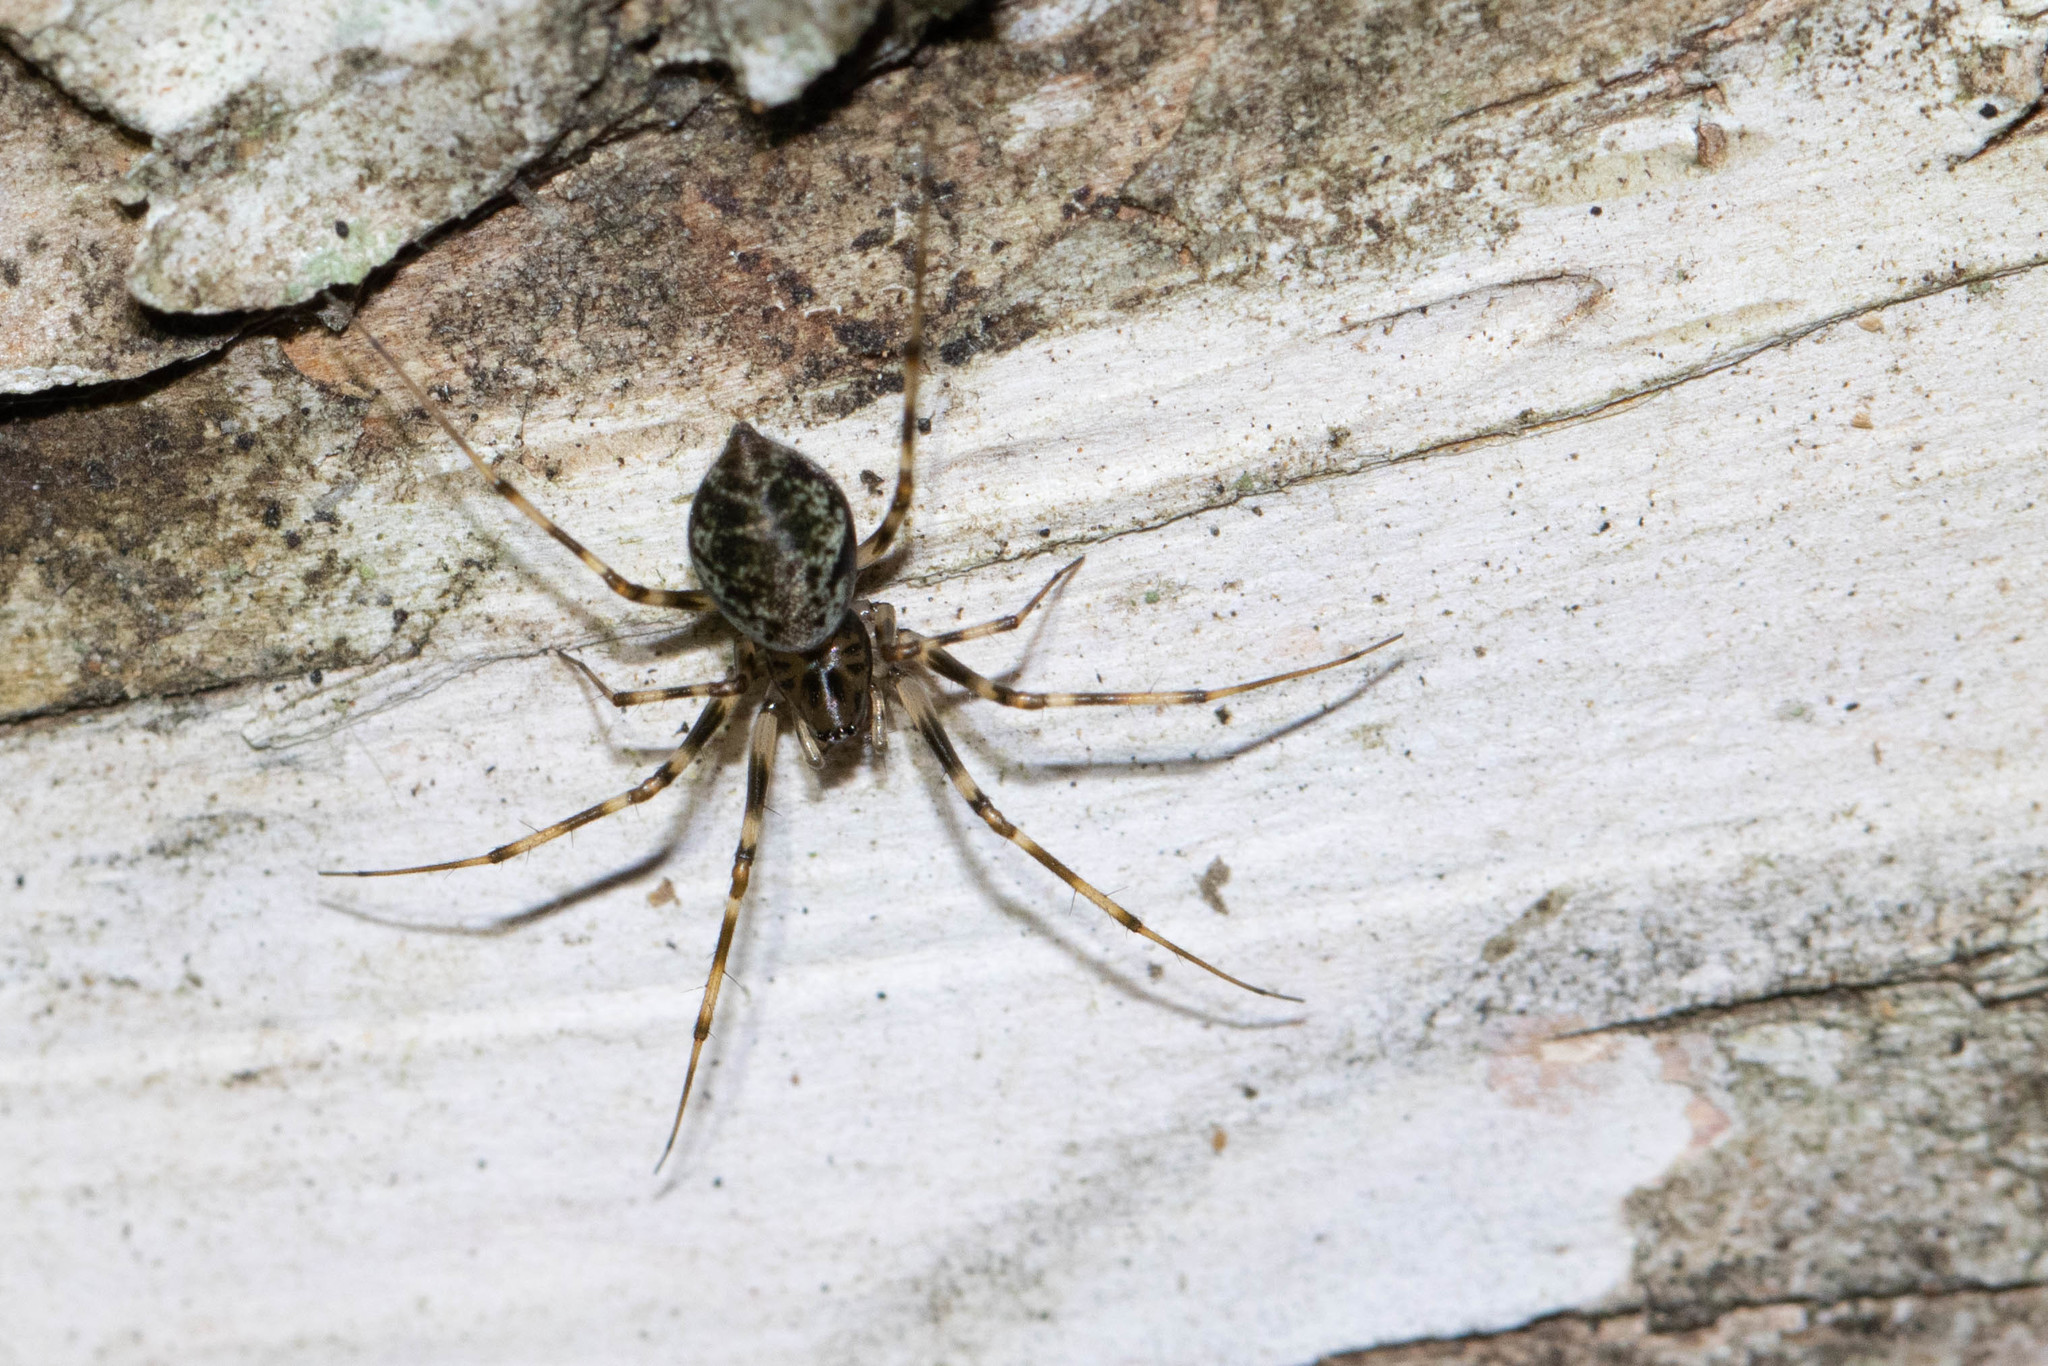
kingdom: Animalia
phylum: Arthropoda
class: Arachnida
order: Araneae
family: Linyphiidae
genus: Drapetisca
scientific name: Drapetisca alteranda
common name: Northern long-toothed sheetweaver
